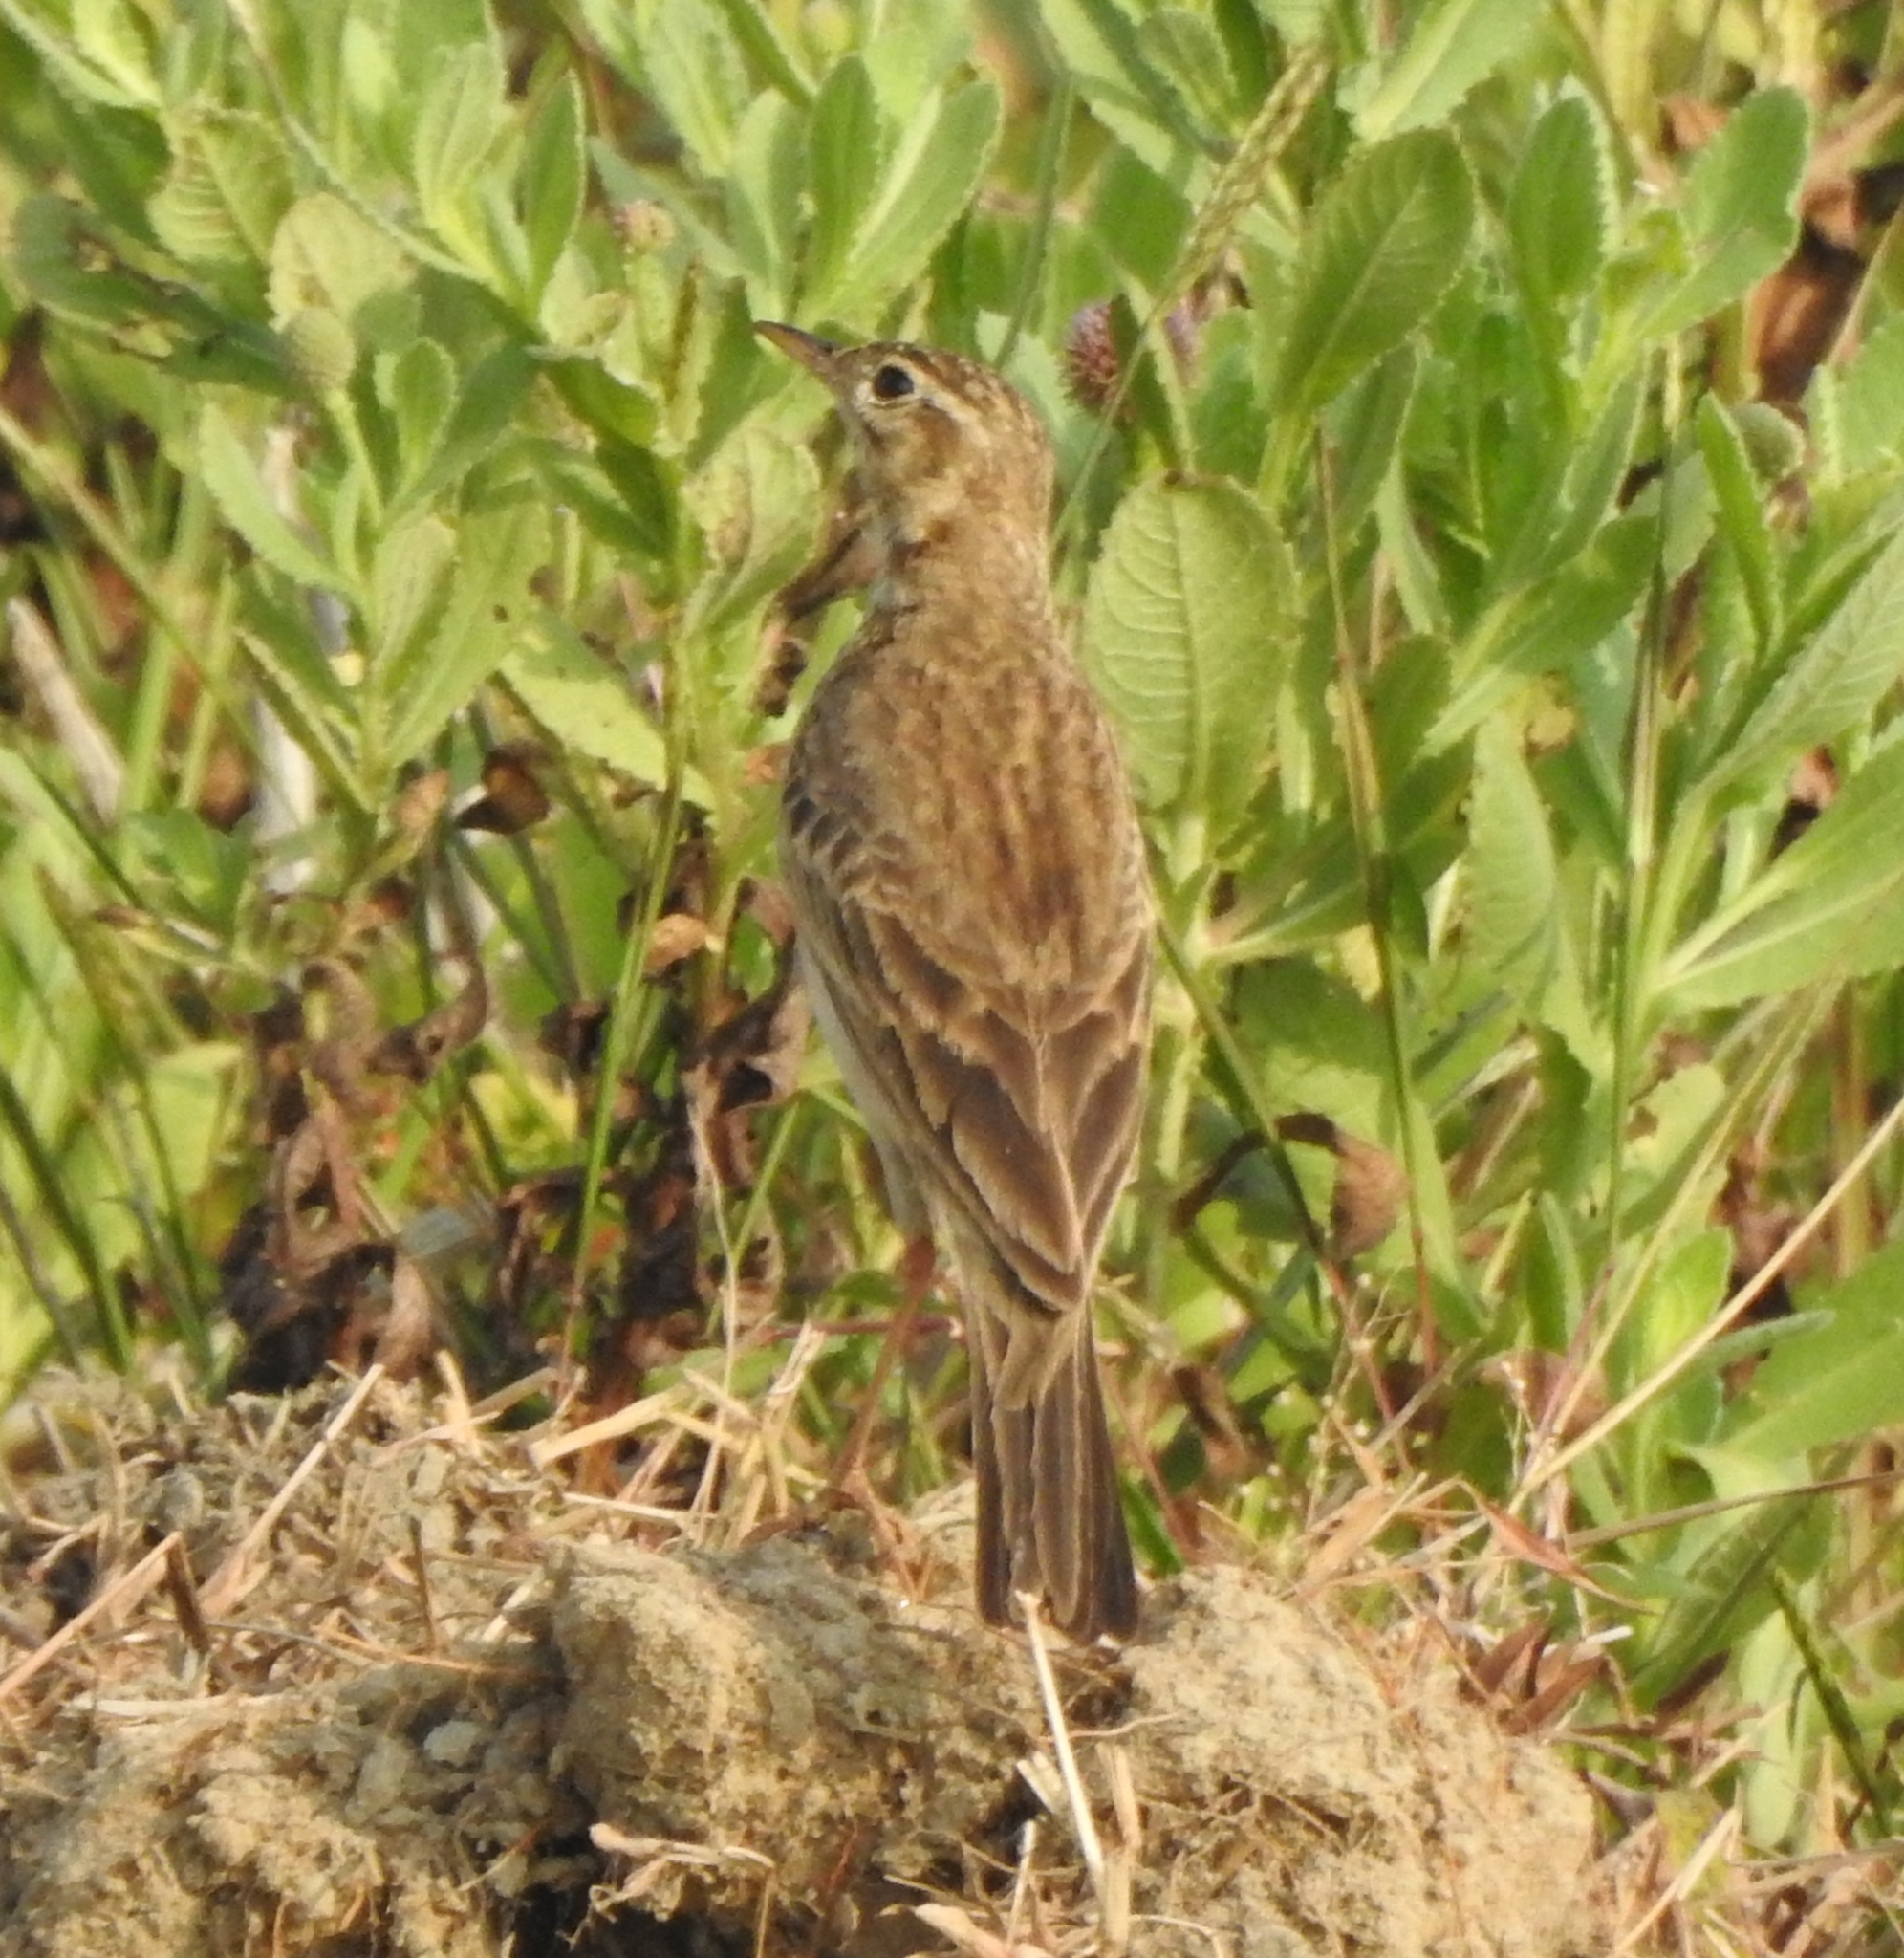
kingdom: Animalia
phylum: Chordata
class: Aves
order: Passeriformes
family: Motacillidae
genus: Anthus
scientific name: Anthus rufulus
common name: Paddyfield pipit
